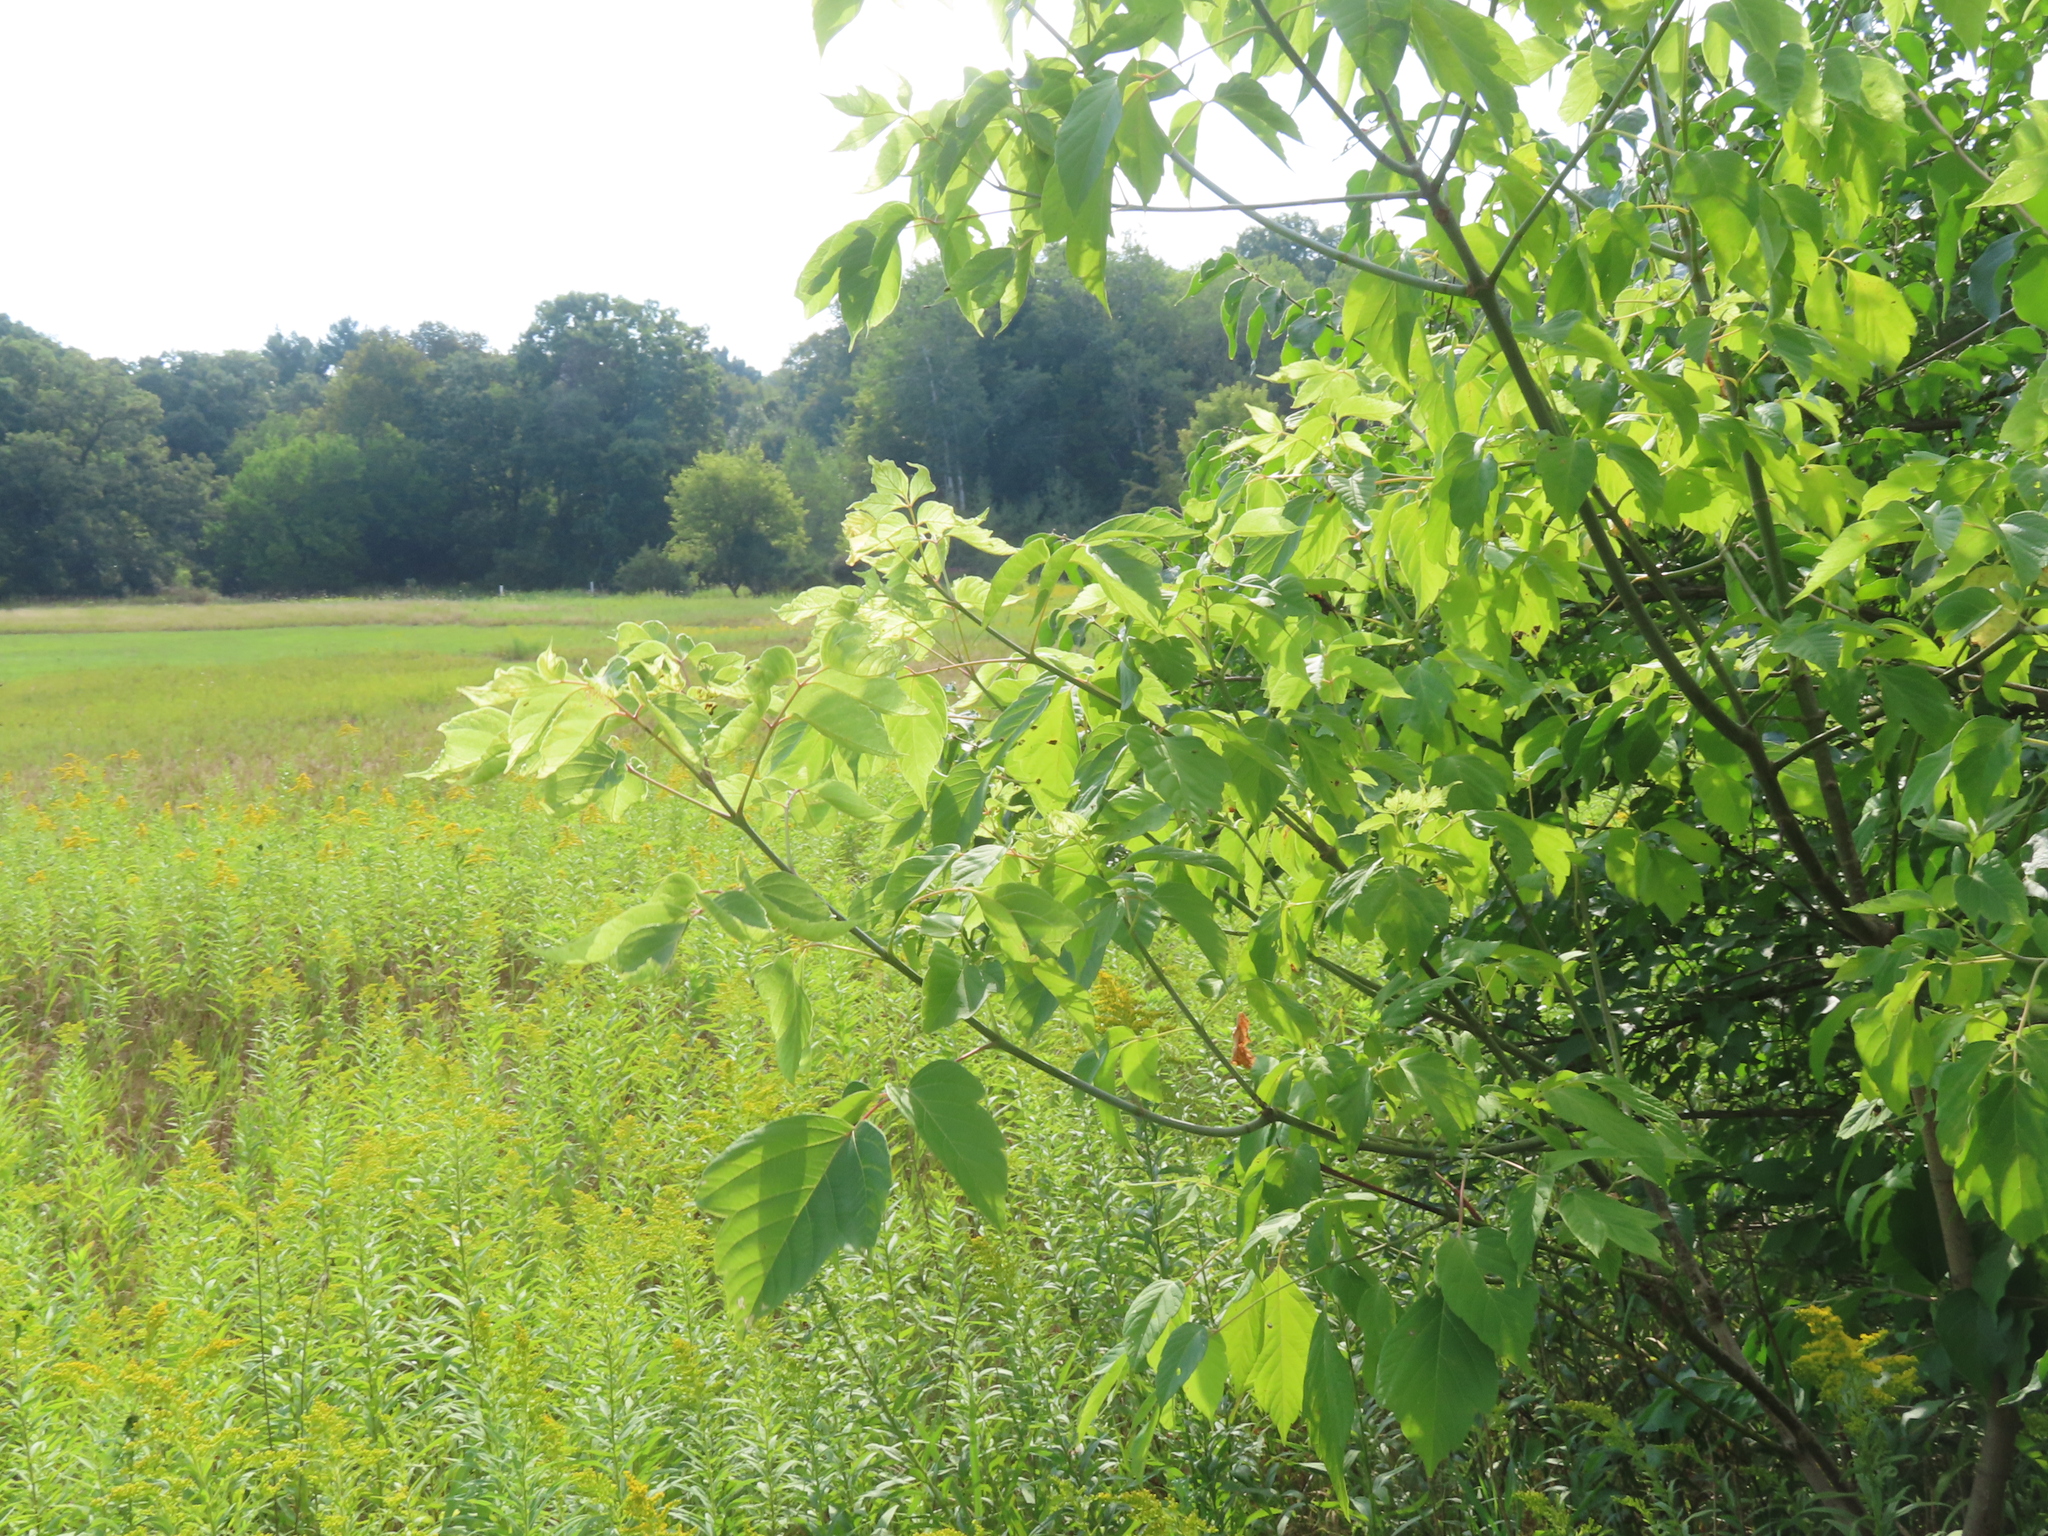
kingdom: Plantae
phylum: Tracheophyta
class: Magnoliopsida
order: Sapindales
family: Sapindaceae
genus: Acer
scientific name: Acer negundo
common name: Ashleaf maple
